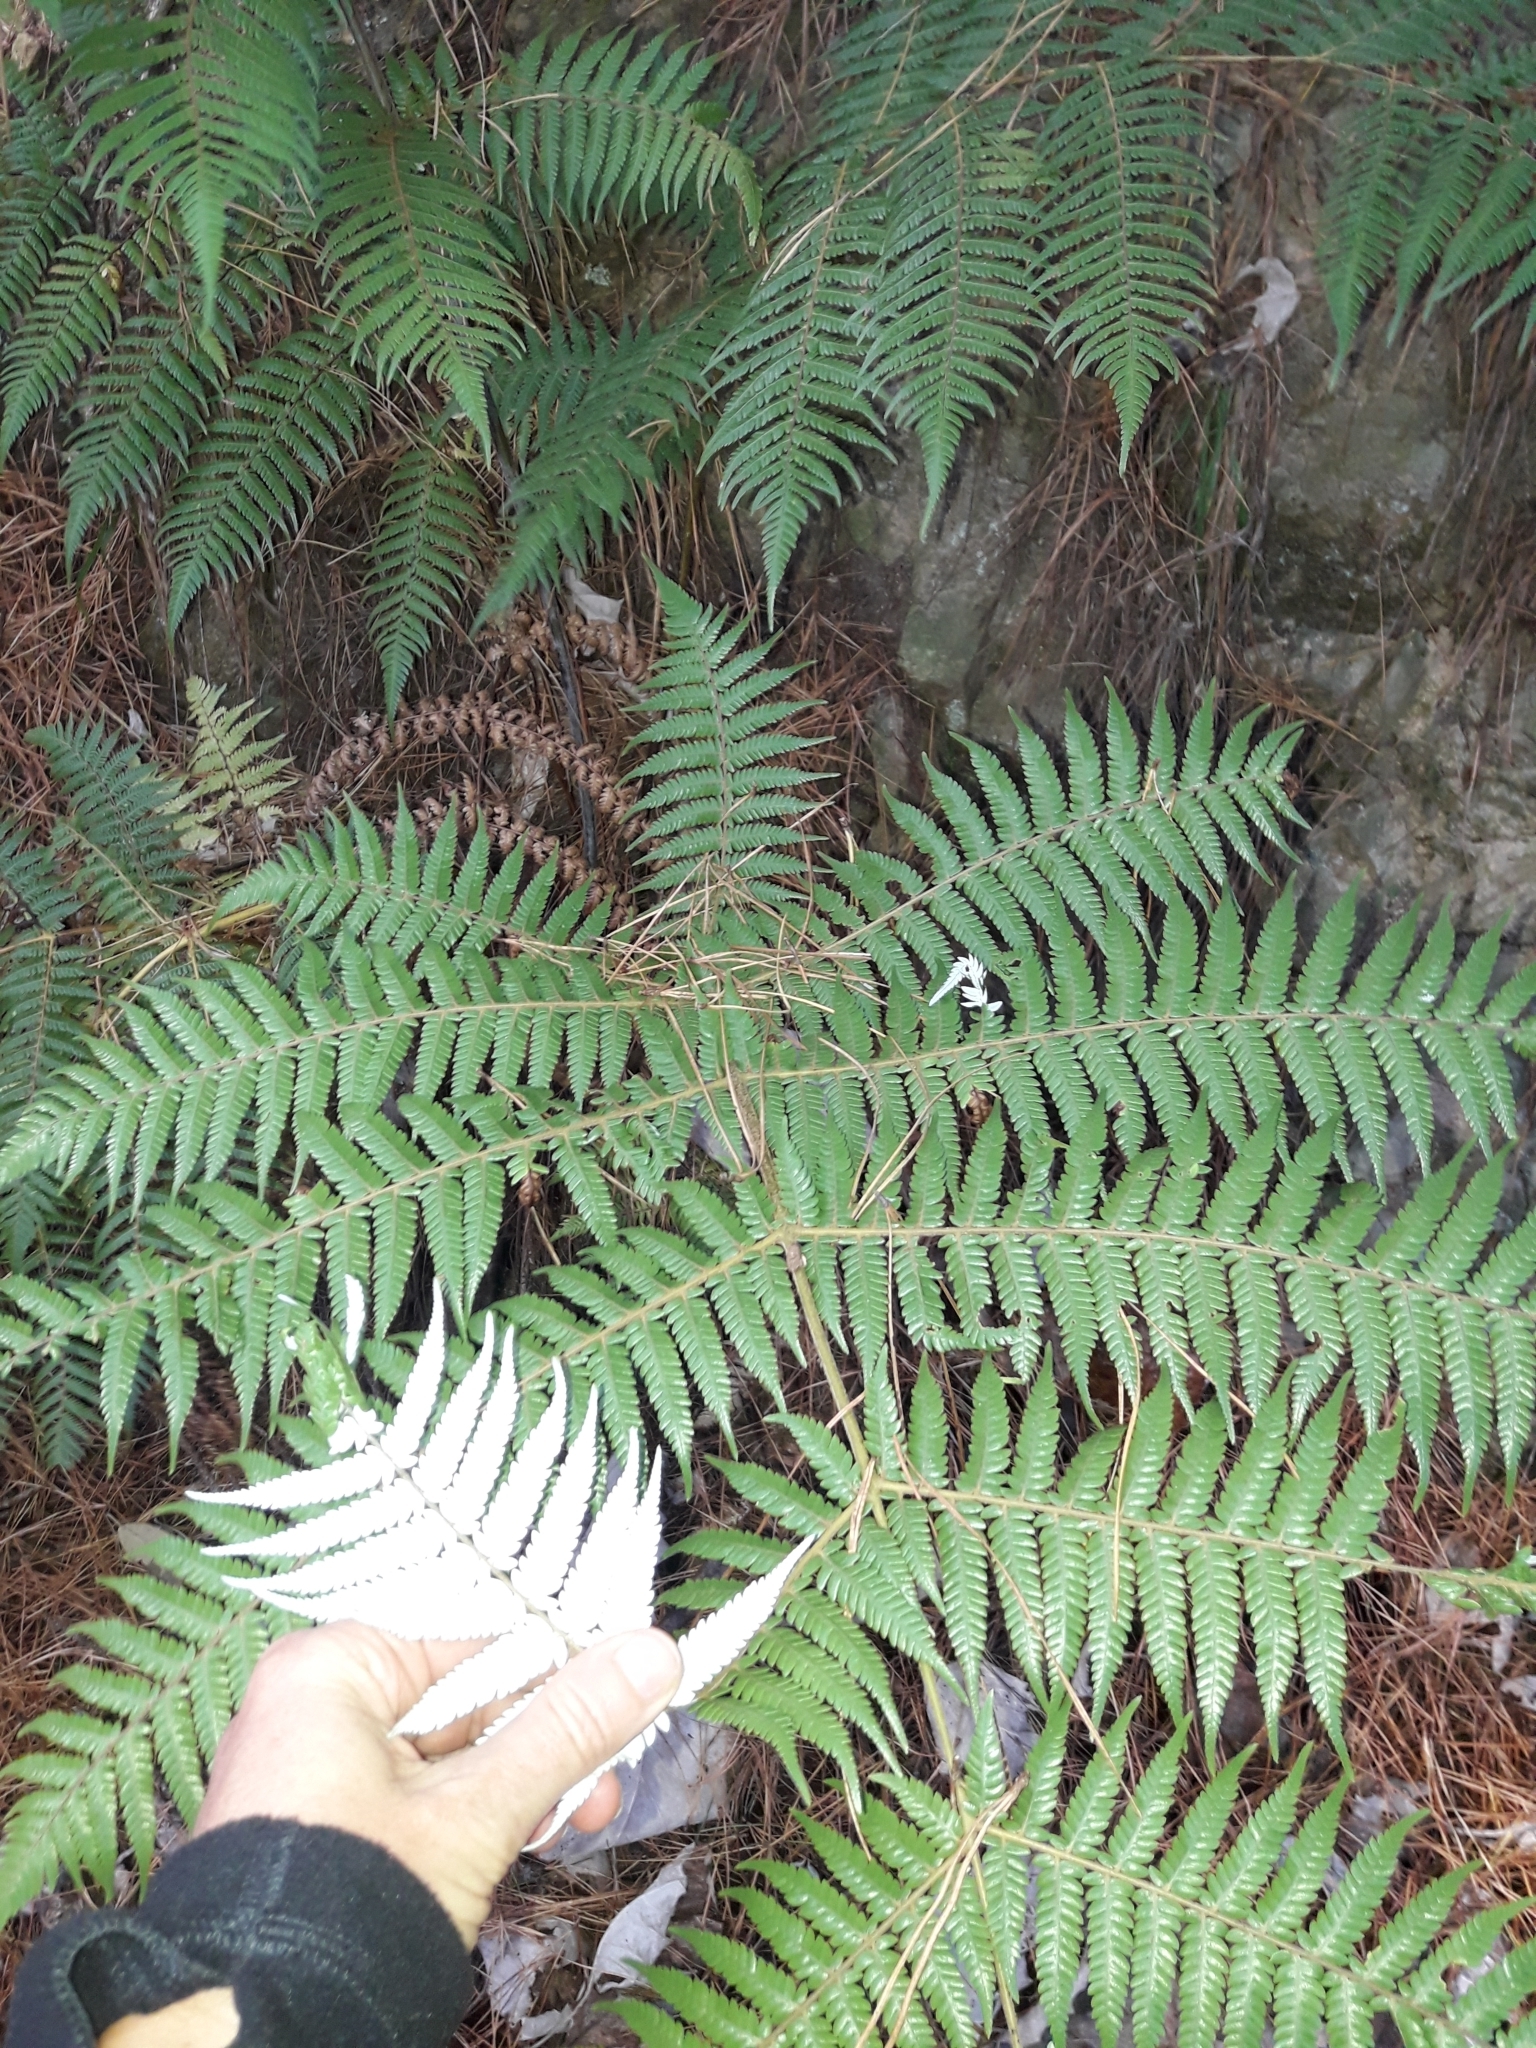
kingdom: Plantae
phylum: Tracheophyta
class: Polypodiopsida
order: Cyatheales
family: Cyatheaceae
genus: Alsophila
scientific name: Alsophila dealbata
